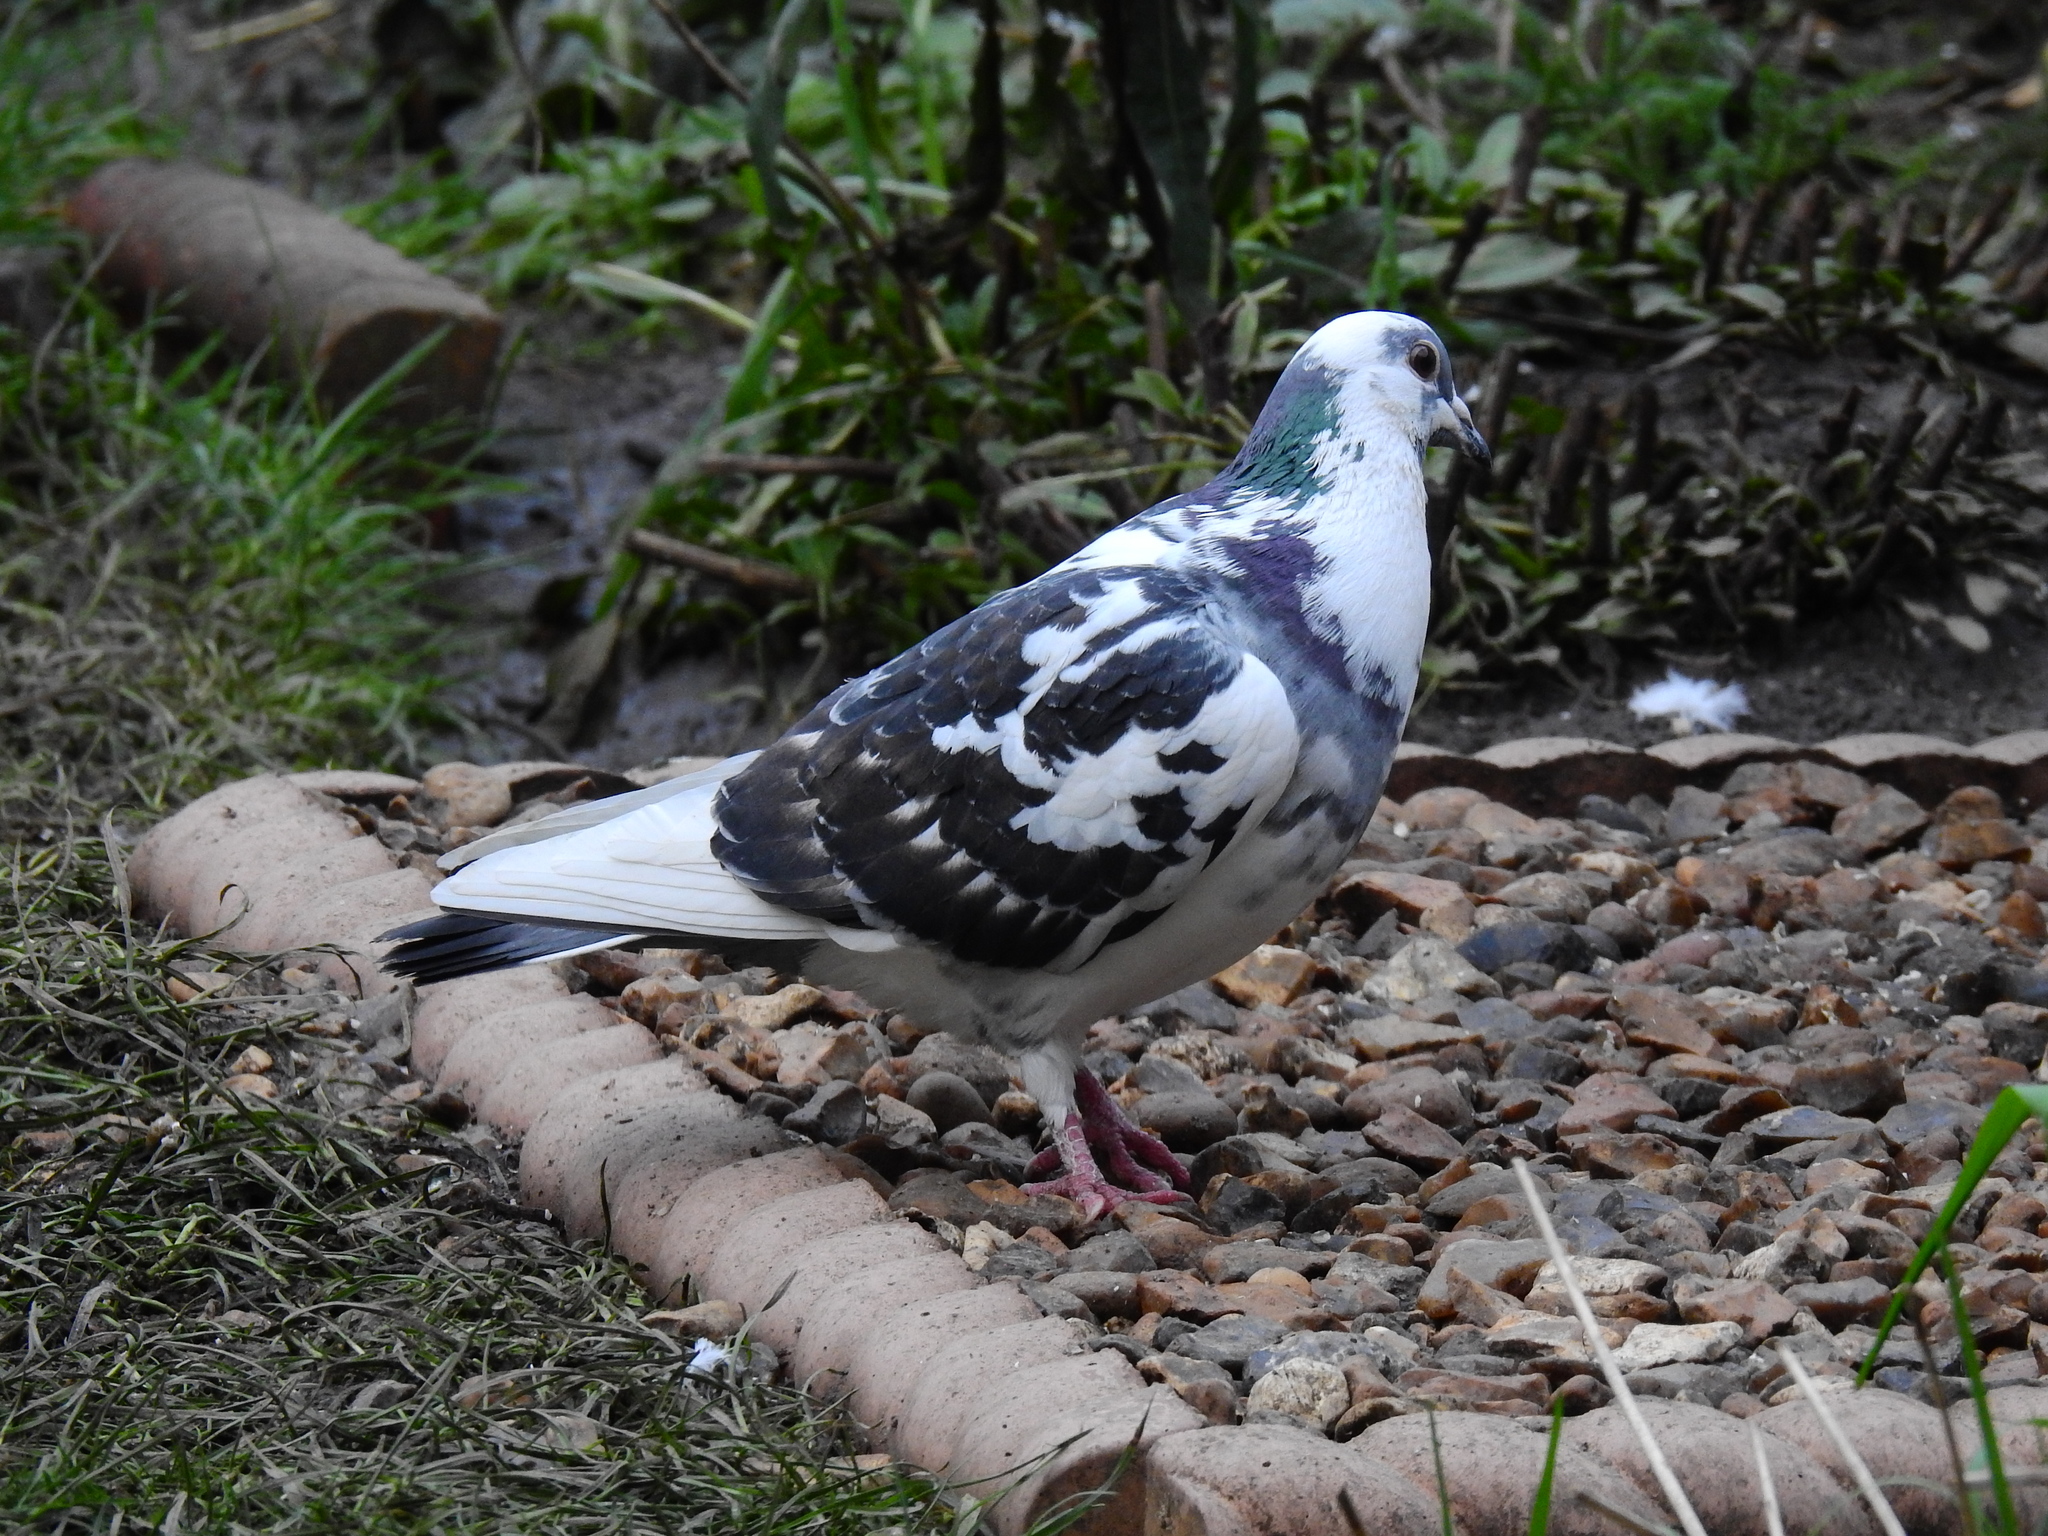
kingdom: Animalia
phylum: Chordata
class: Aves
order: Columbiformes
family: Columbidae
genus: Columba
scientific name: Columba livia
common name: Rock pigeon
